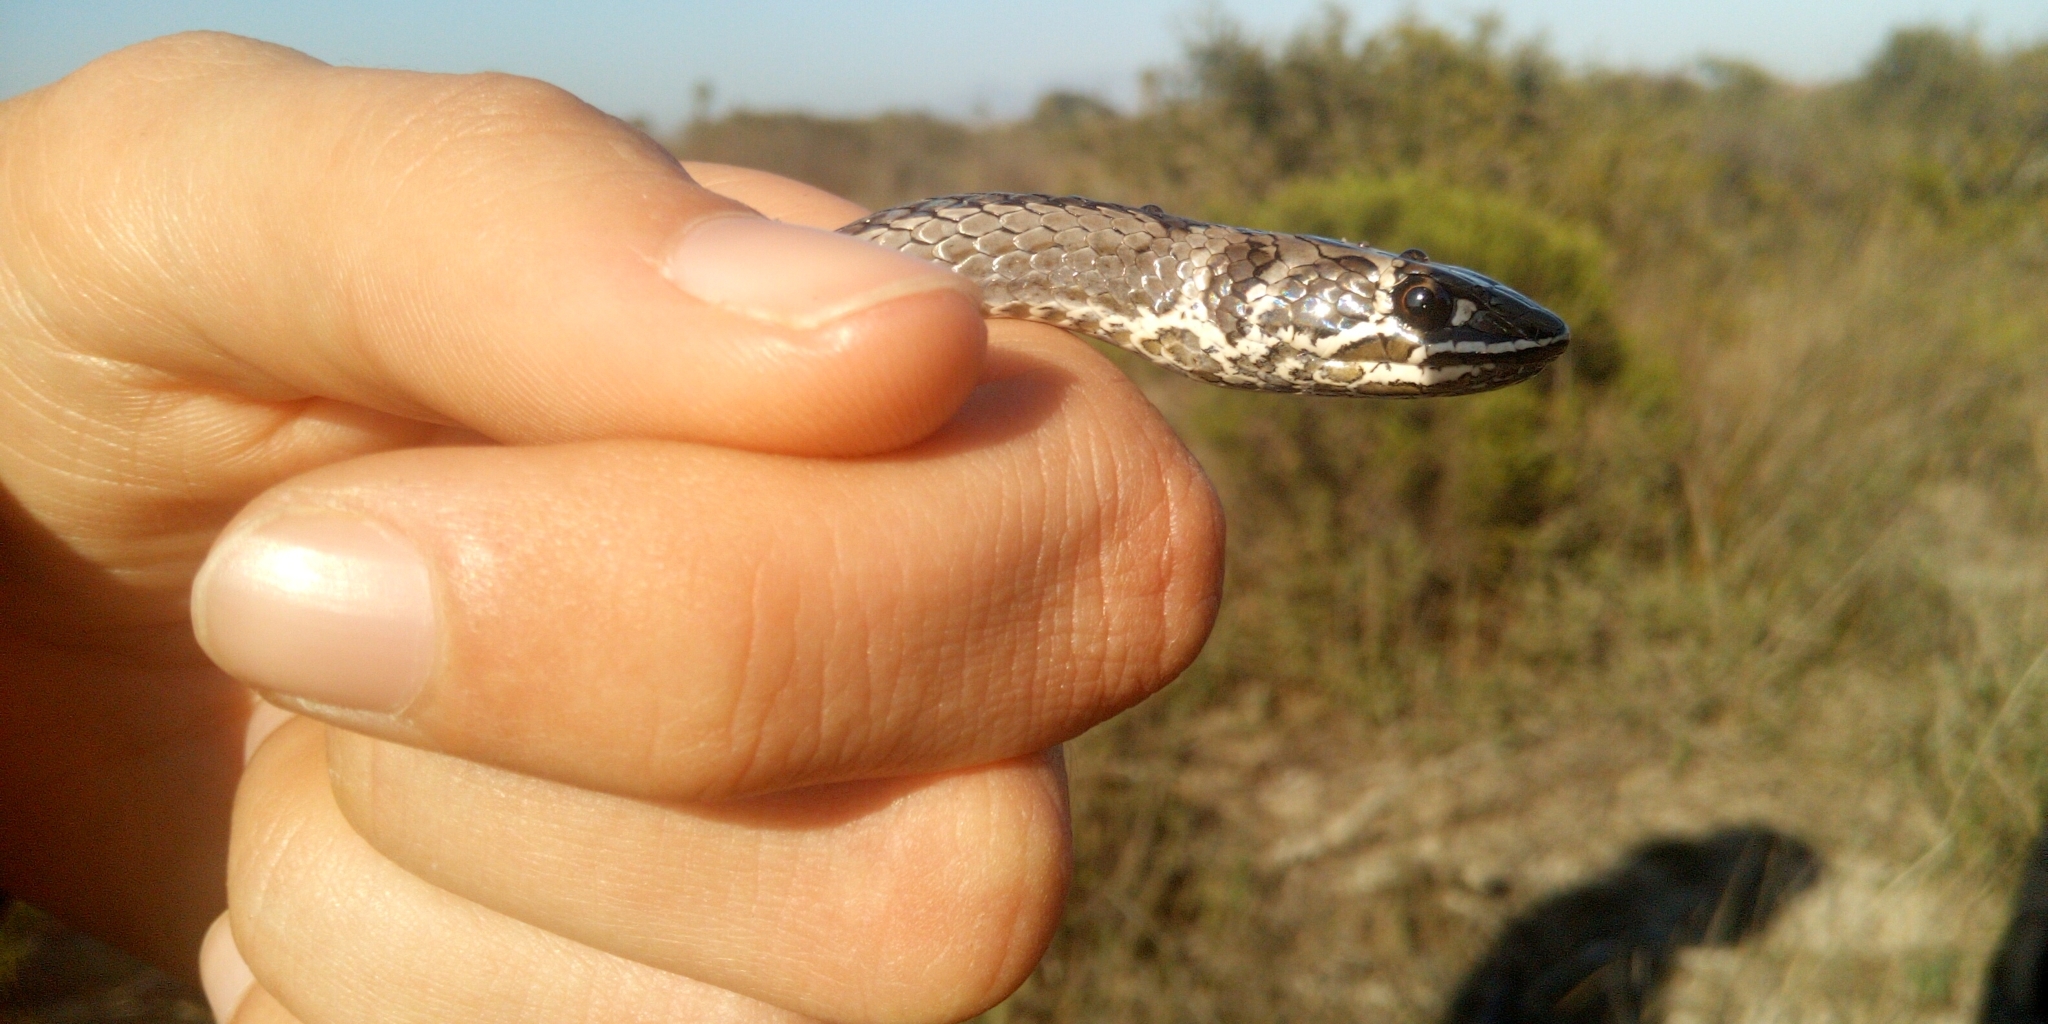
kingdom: Animalia
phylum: Chordata
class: Squamata
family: Psammophiidae
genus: Psammophis
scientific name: Psammophis crucifer
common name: Cross-marked grass snake
